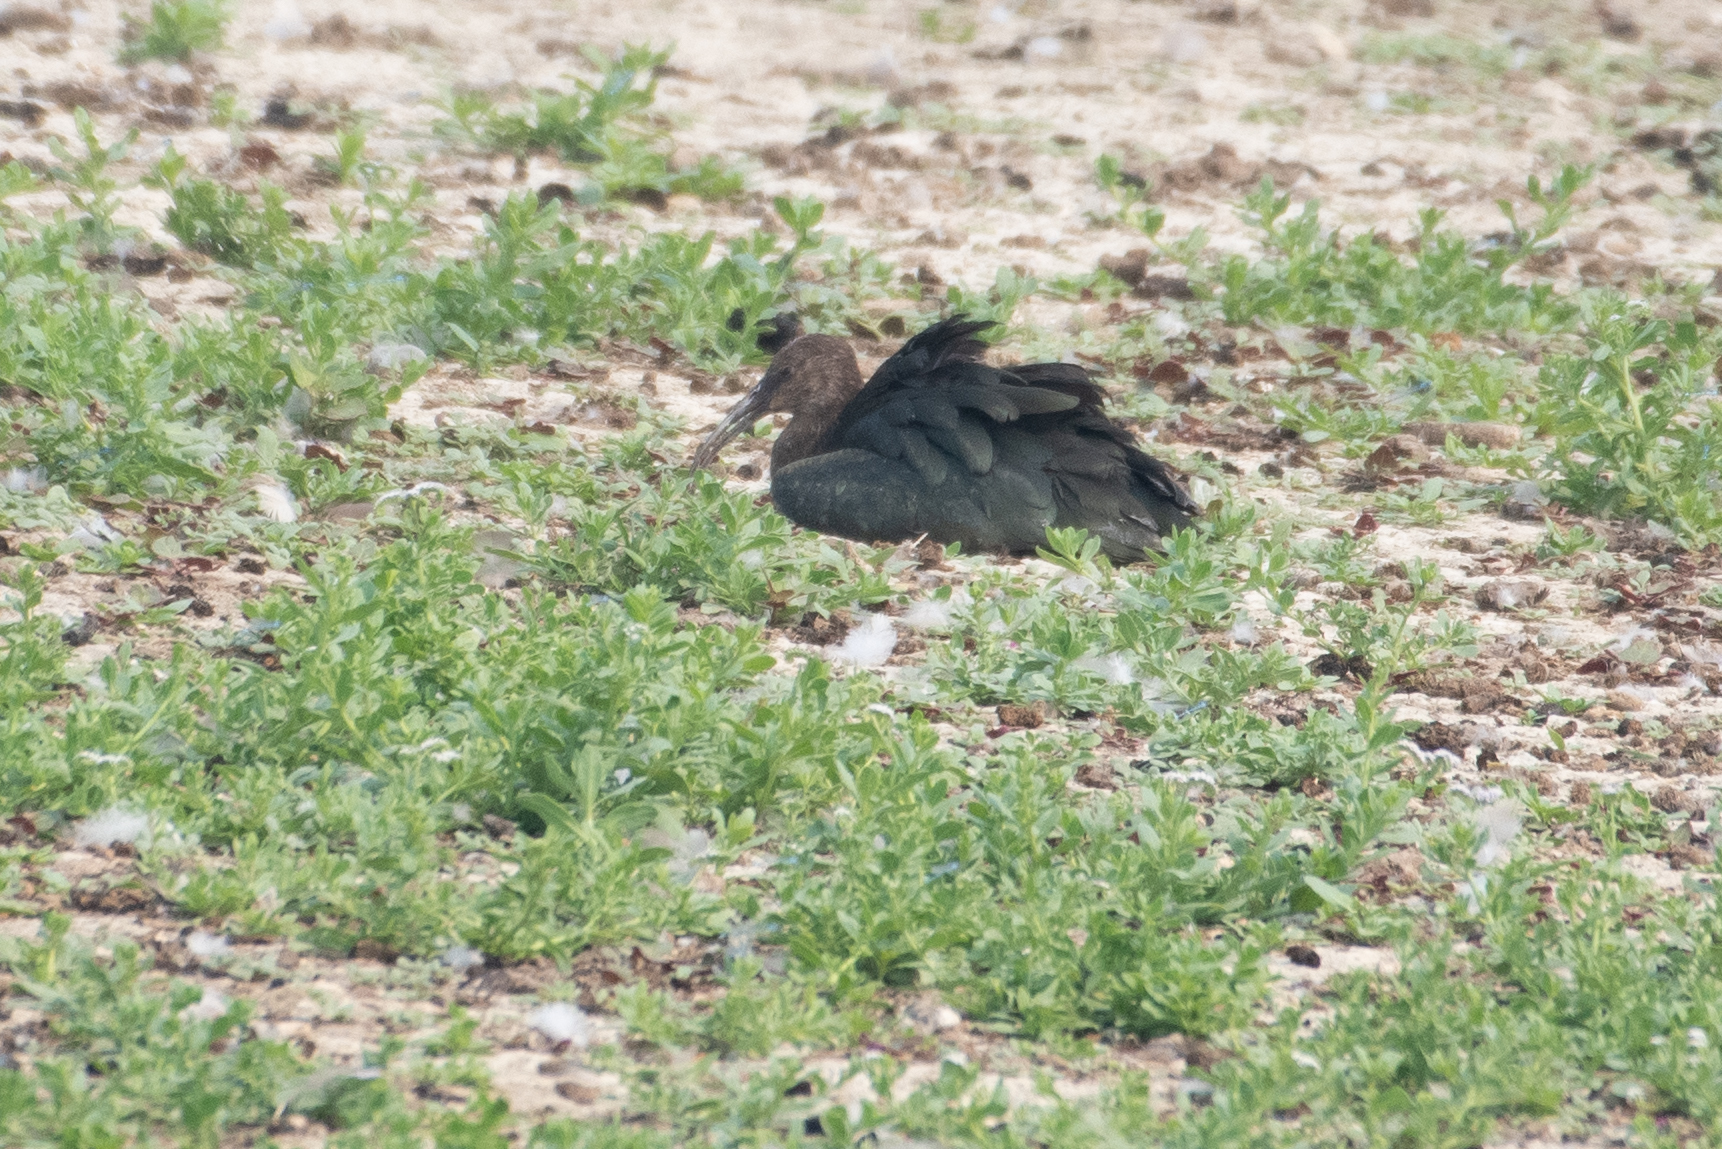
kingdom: Animalia
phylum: Chordata
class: Aves
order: Pelecaniformes
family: Threskiornithidae
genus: Plegadis
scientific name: Plegadis chihi
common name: White-faced ibis
